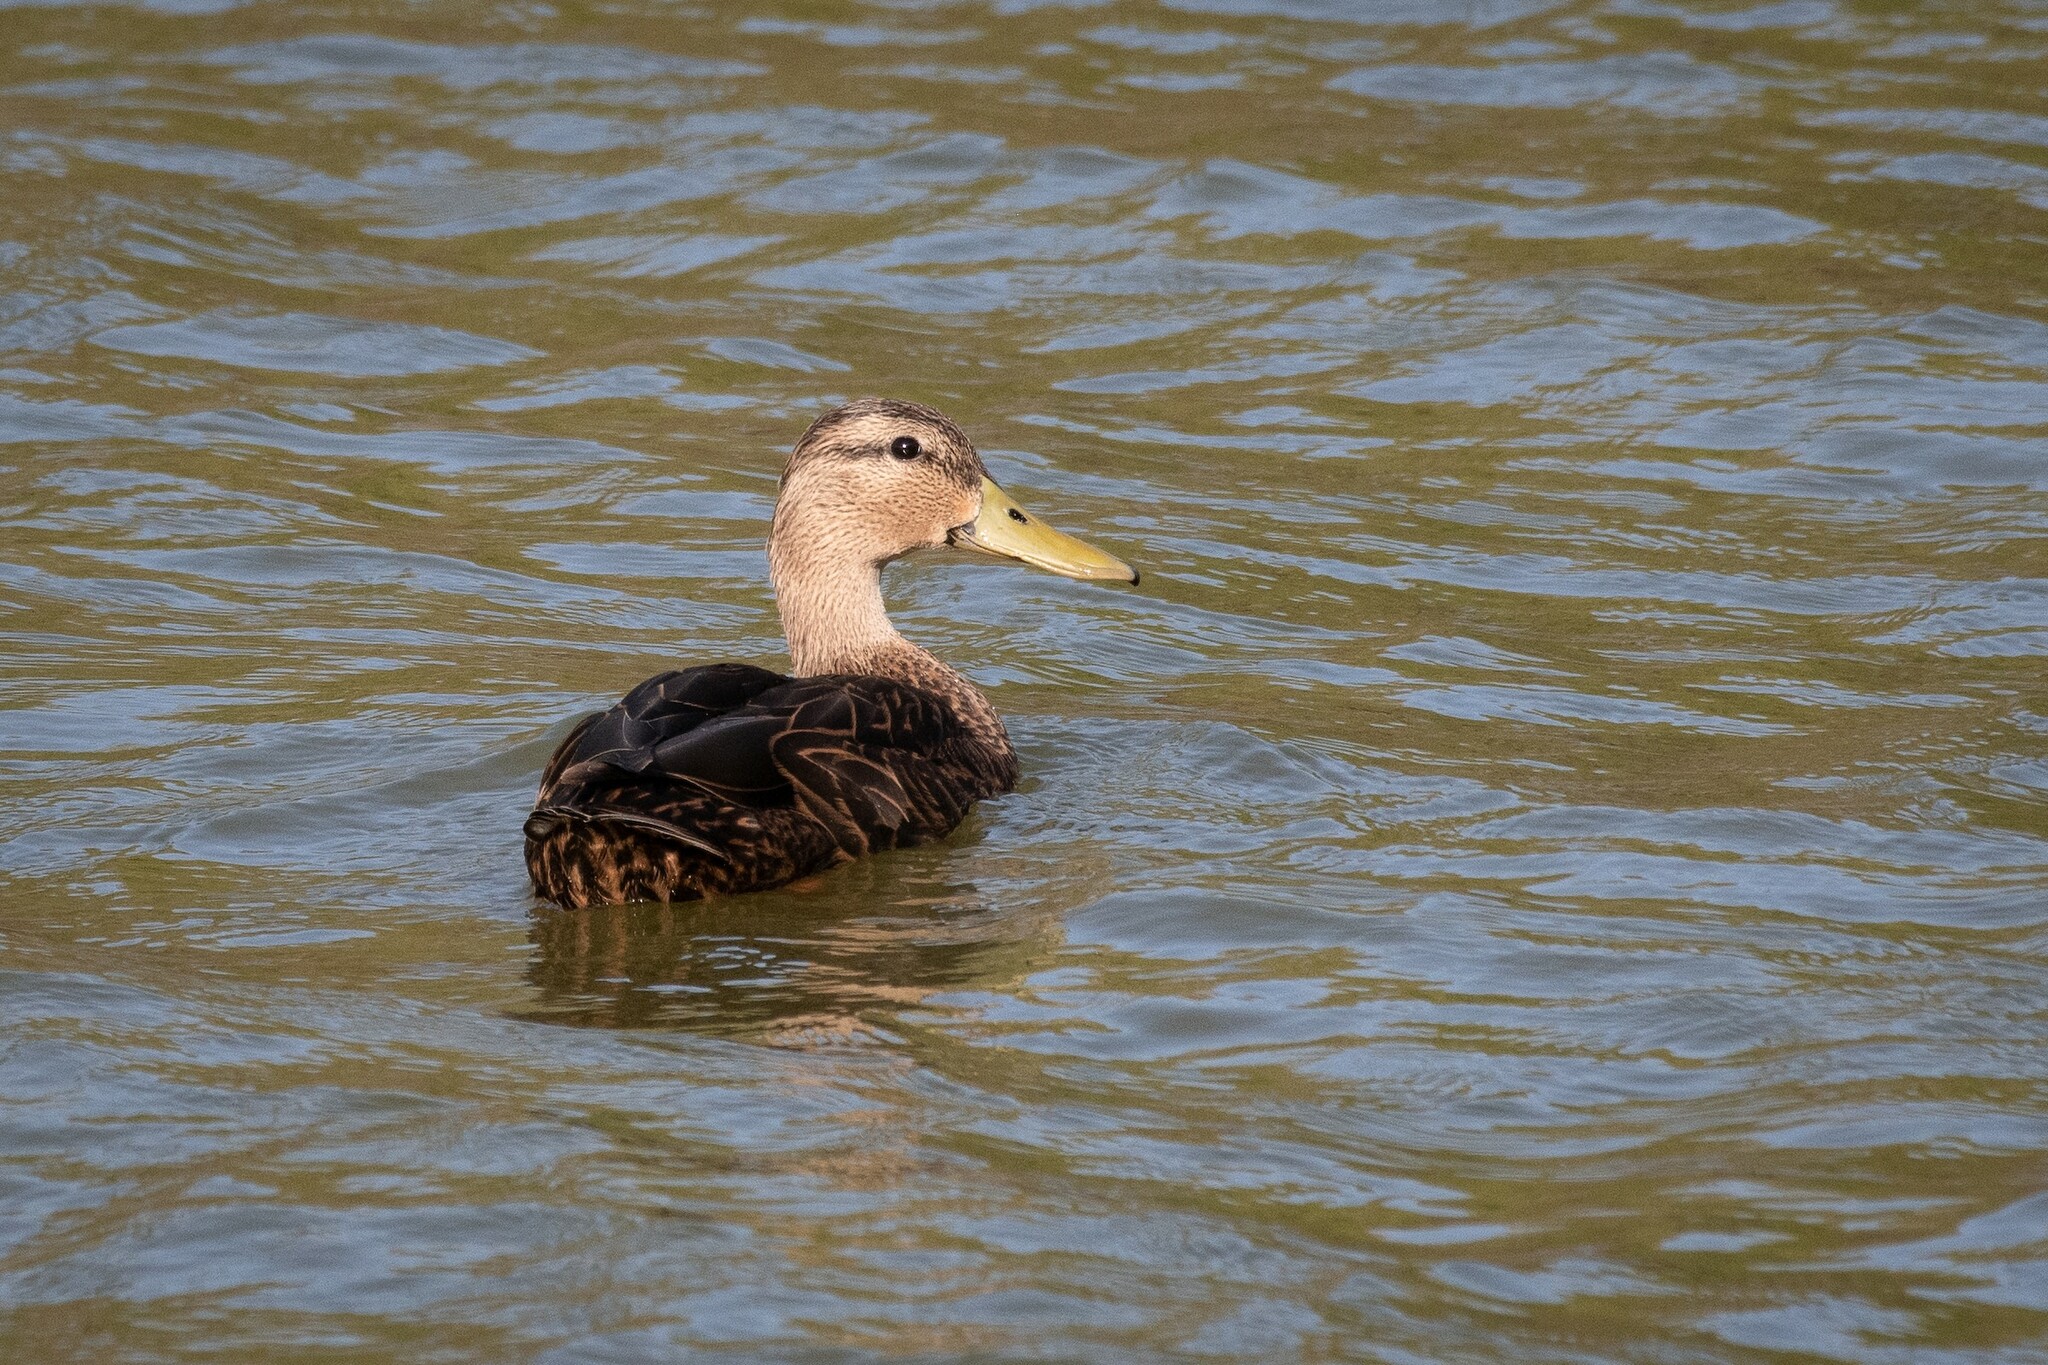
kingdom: Animalia
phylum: Chordata
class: Aves
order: Anseriformes
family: Anatidae
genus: Anas
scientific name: Anas fulvigula
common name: Mottled duck
